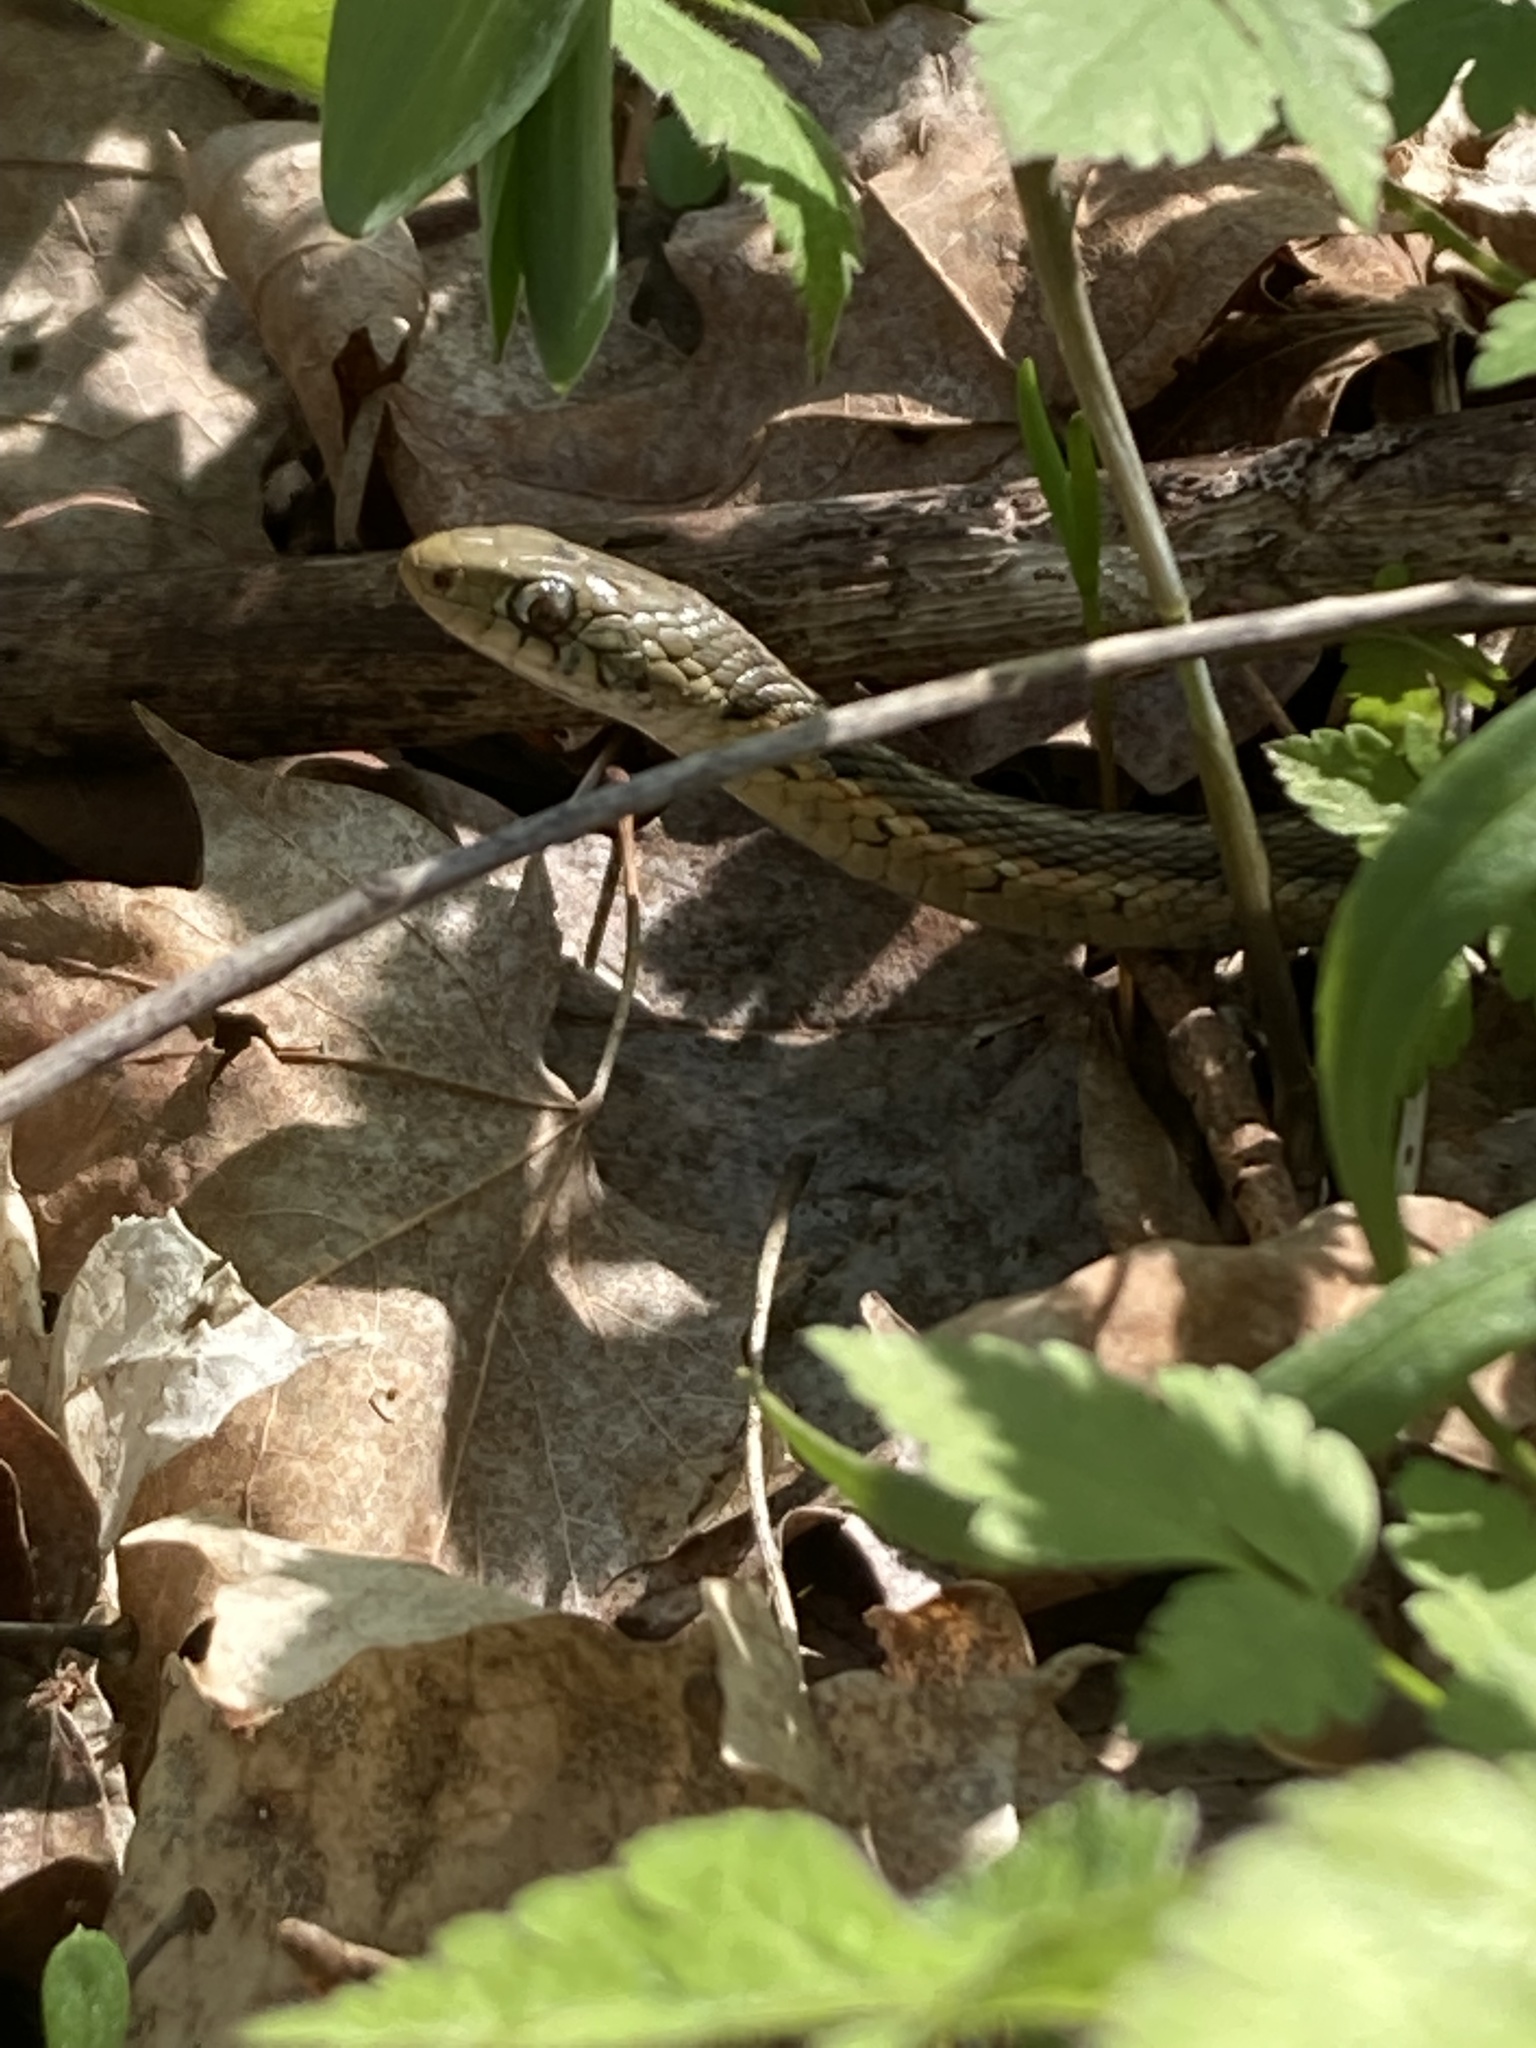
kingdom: Animalia
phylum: Chordata
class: Squamata
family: Colubridae
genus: Thamnophis
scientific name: Thamnophis sirtalis
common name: Common garter snake
